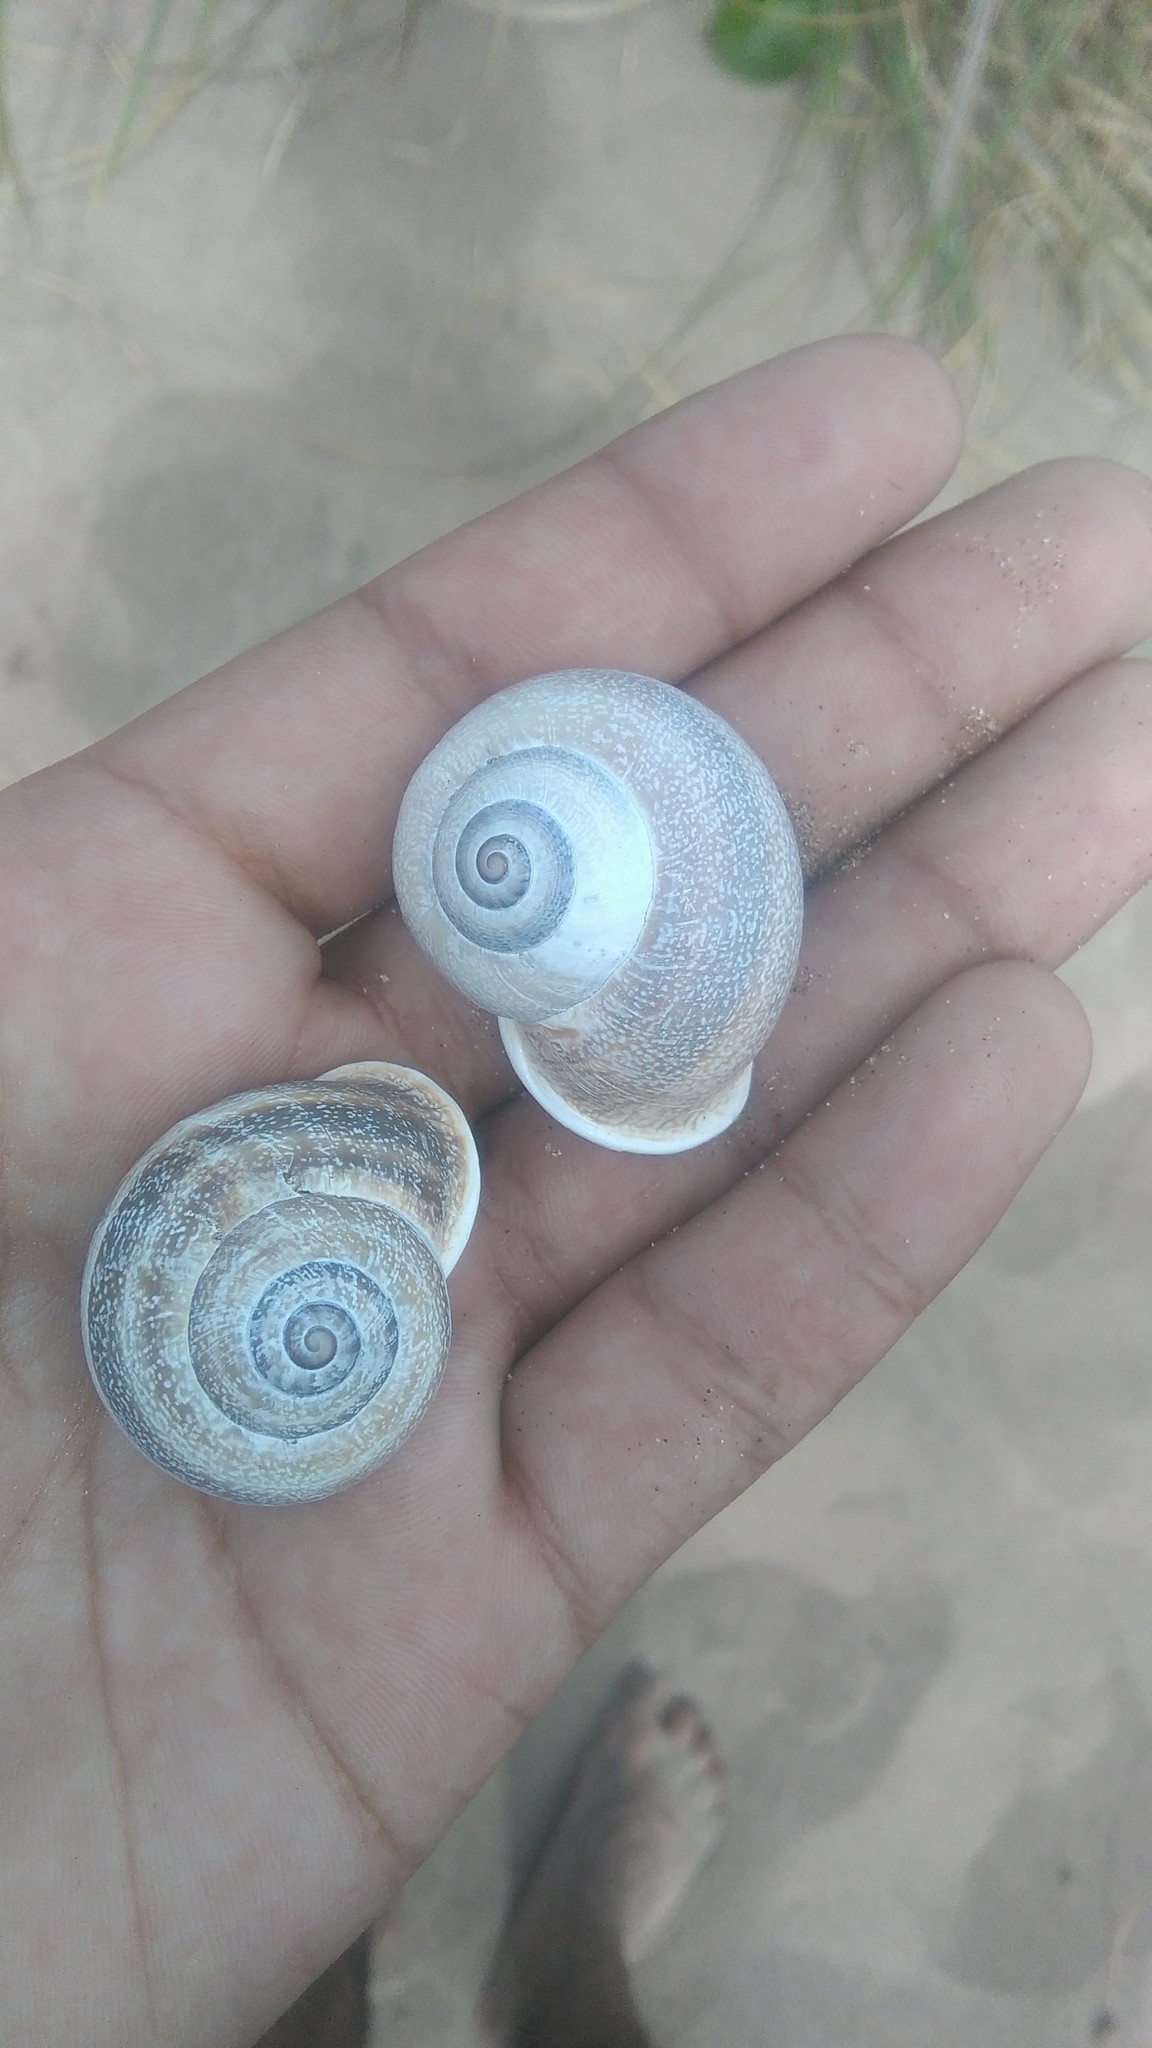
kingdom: Animalia
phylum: Mollusca
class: Gastropoda
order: Stylommatophora
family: Helicidae
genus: Otala
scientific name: Otala punctata
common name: Milk snail
